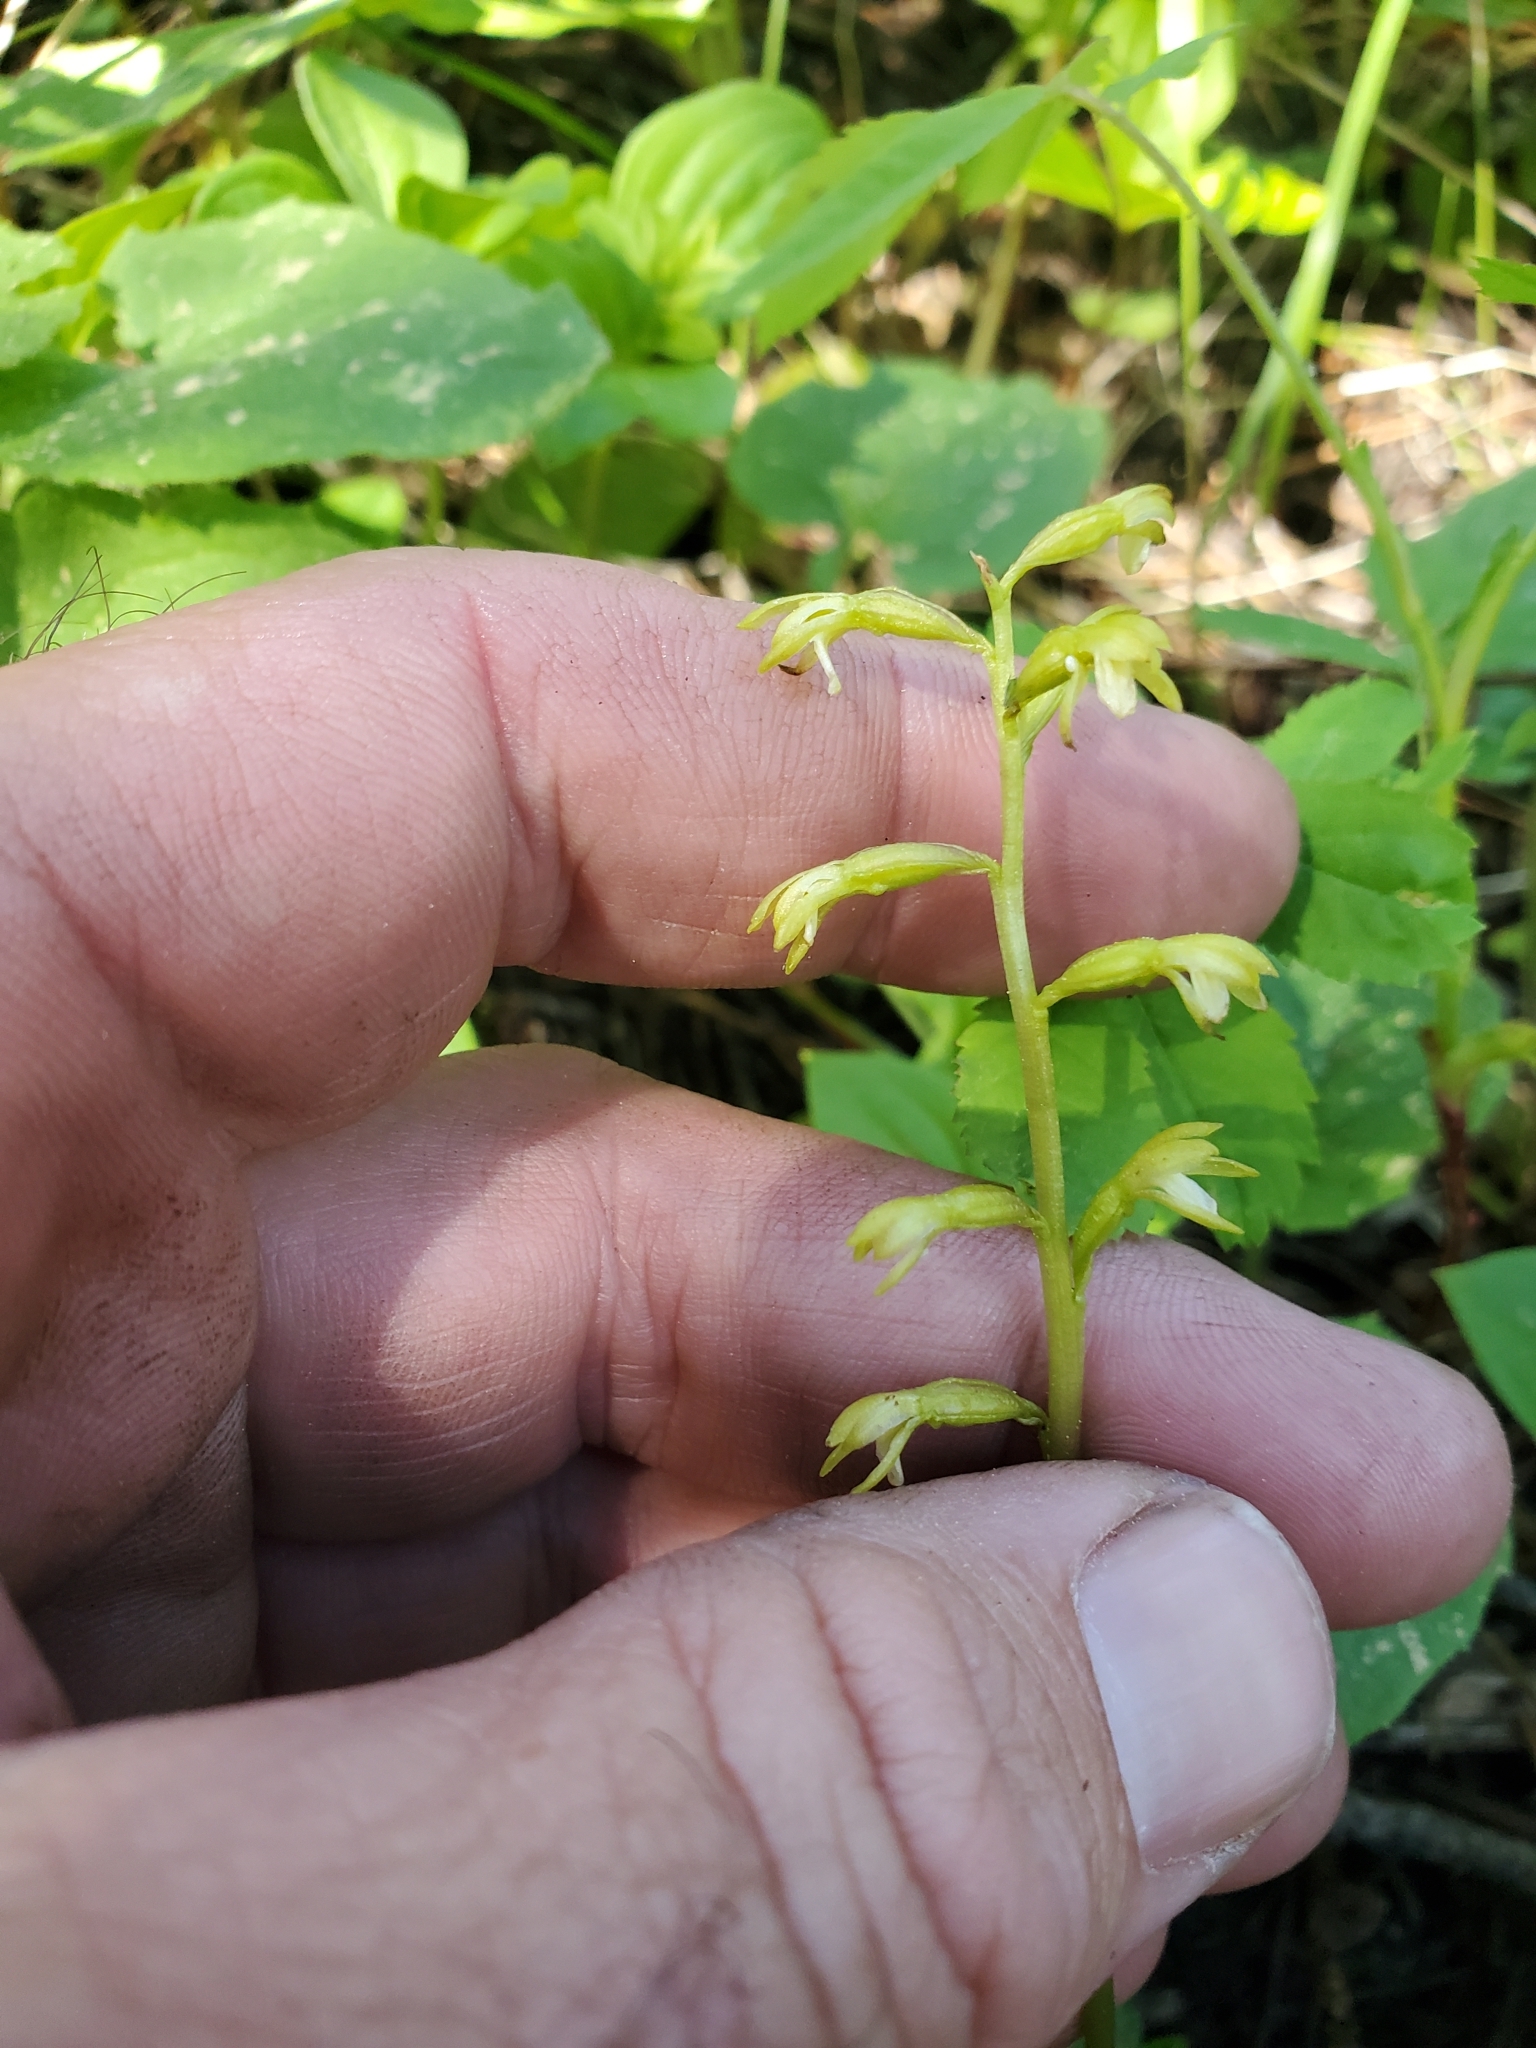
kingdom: Plantae
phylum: Tracheophyta
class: Liliopsida
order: Asparagales
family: Orchidaceae
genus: Corallorhiza
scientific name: Corallorhiza trifida
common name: Yellow coralroot
